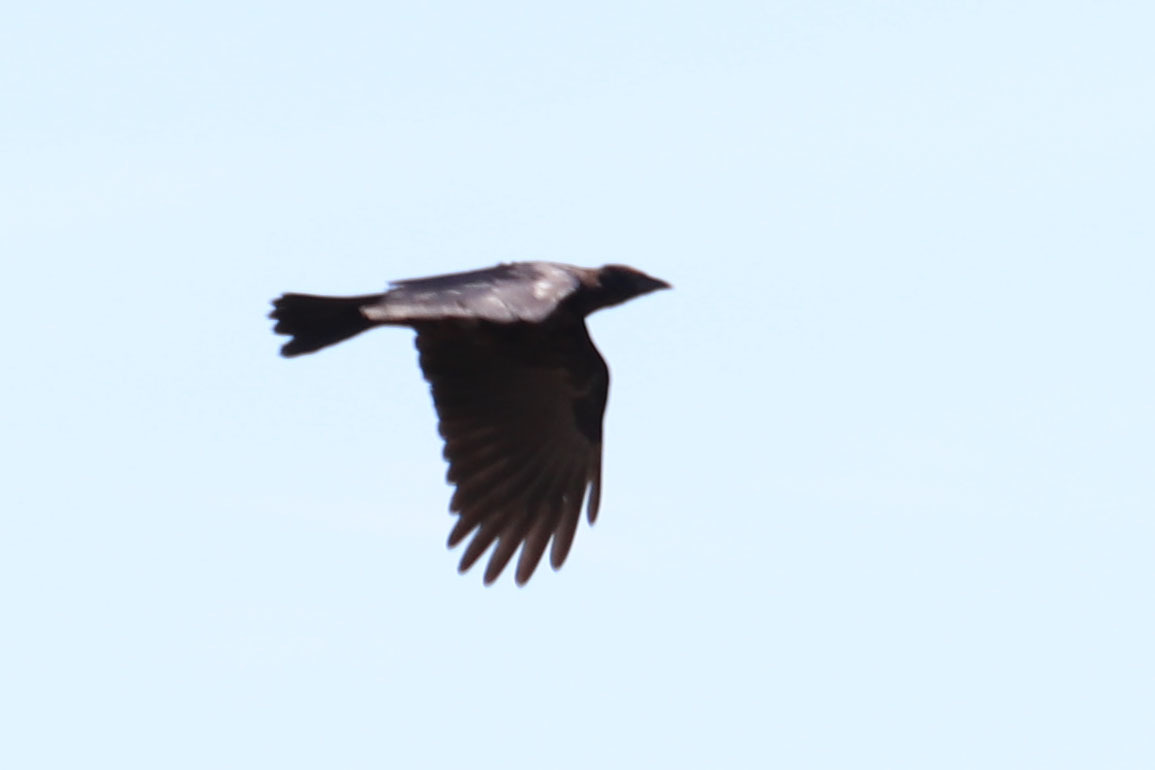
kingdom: Animalia
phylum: Chordata
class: Aves
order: Passeriformes
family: Corvidae
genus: Corvus
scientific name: Corvus brachyrhynchos
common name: American crow
